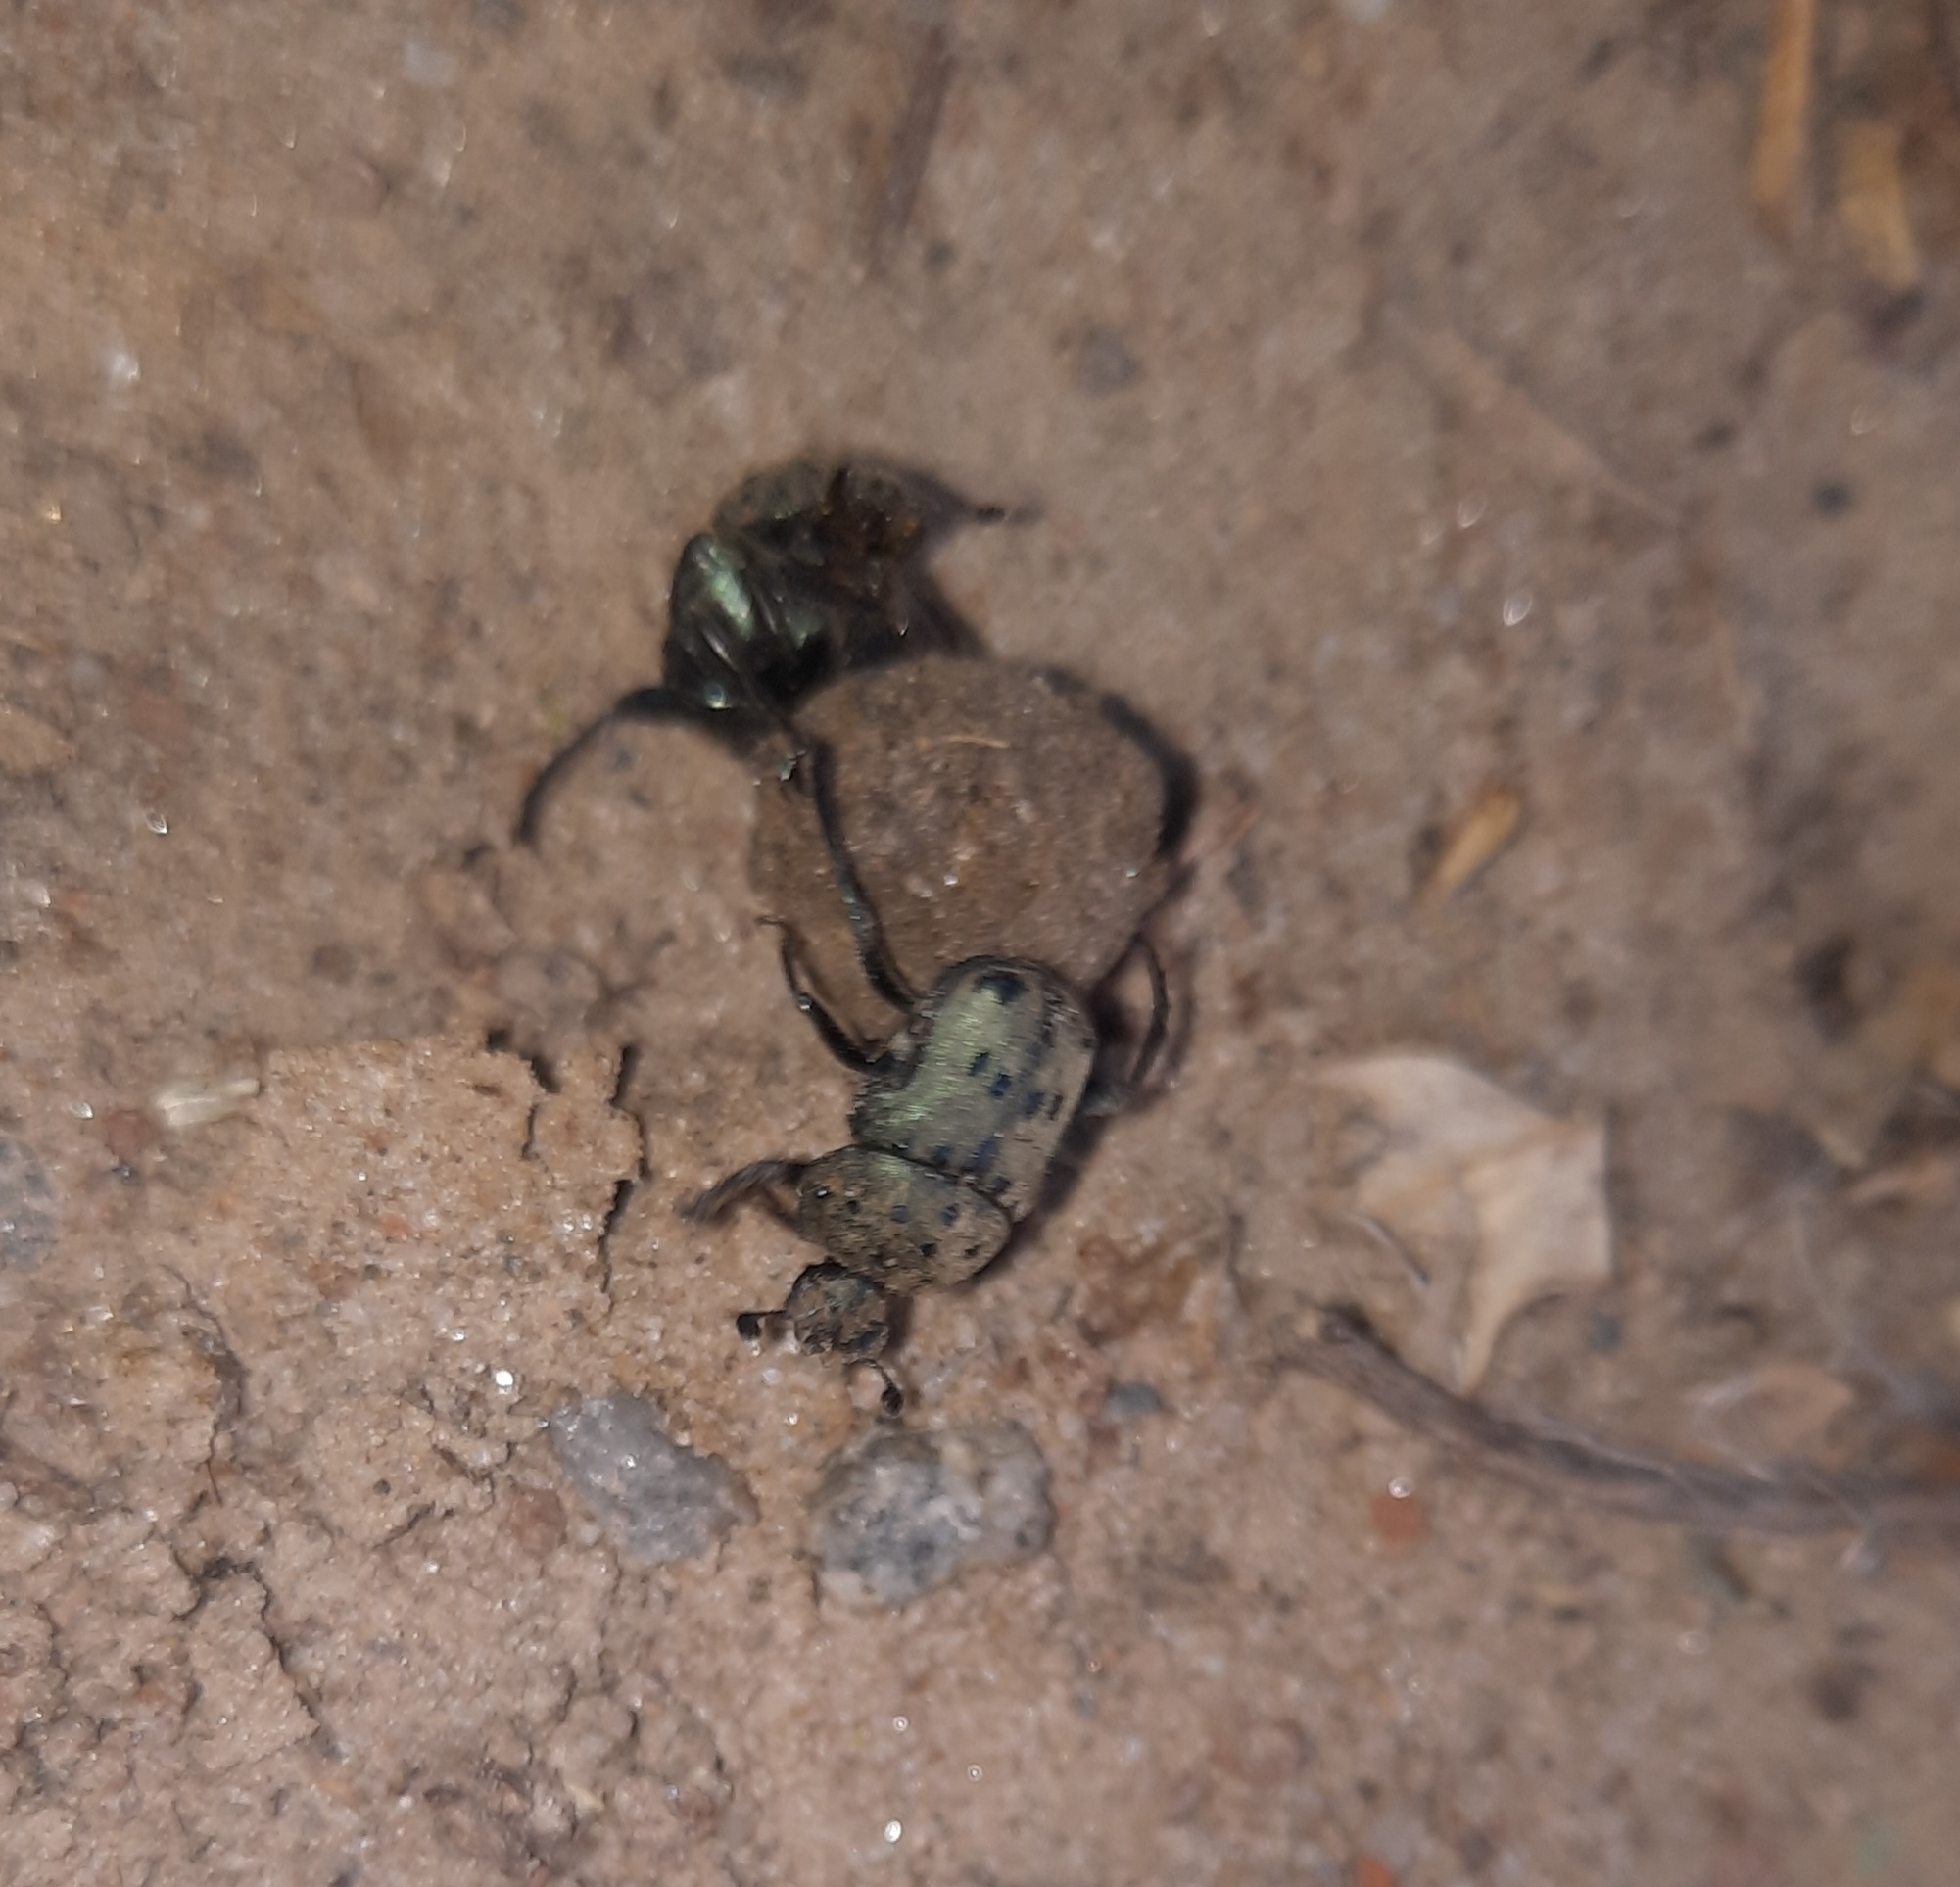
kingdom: Animalia
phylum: Arthropoda
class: Insecta
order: Coleoptera
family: Scarabaeidae
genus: Gymnopleurus
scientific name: Gymnopleurus miliaris
